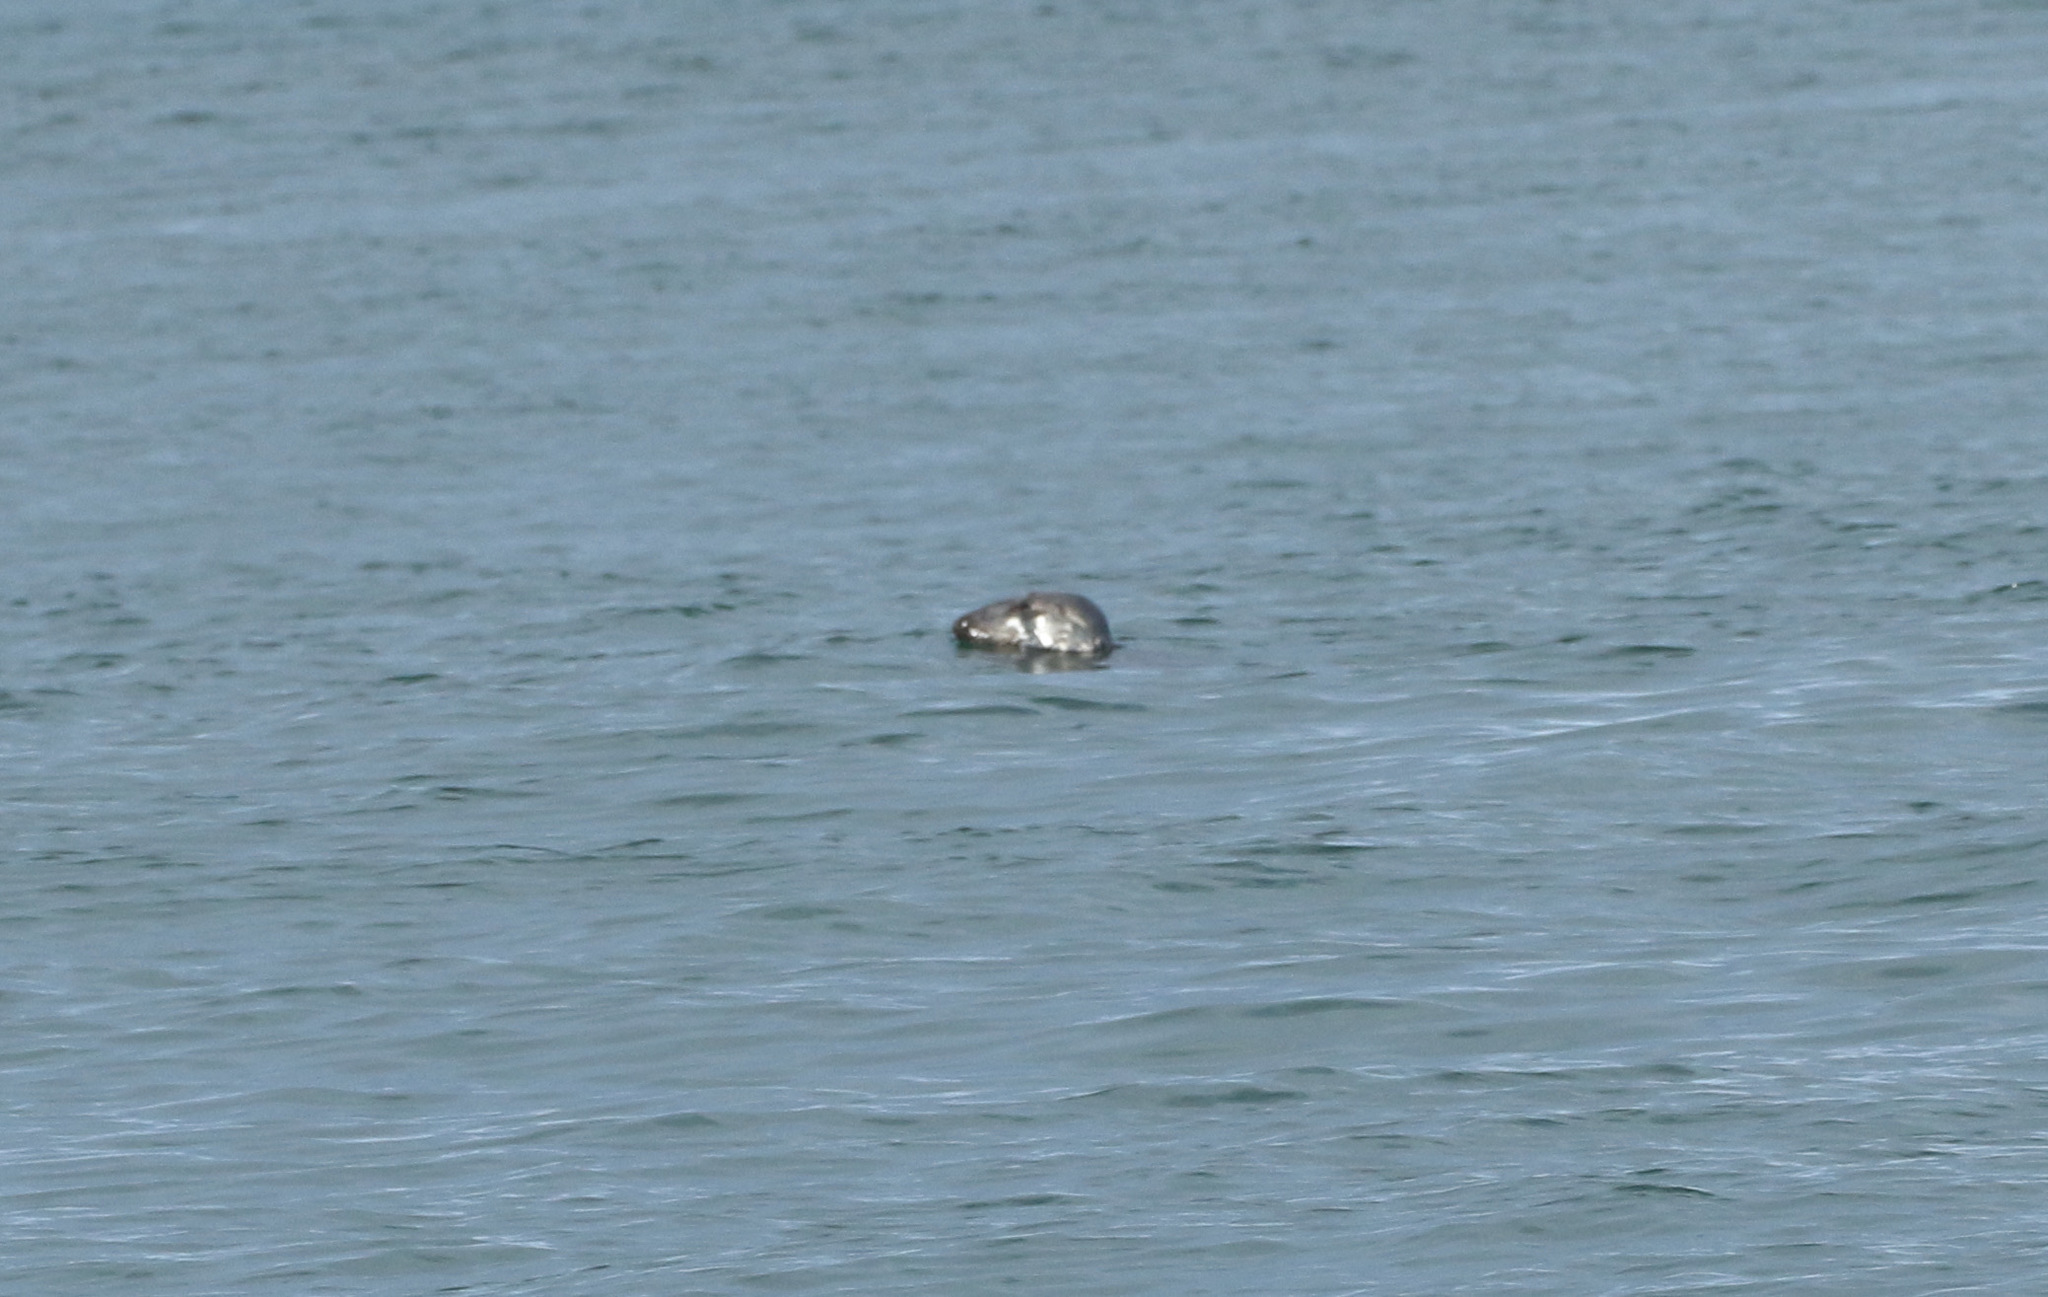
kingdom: Animalia
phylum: Chordata
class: Mammalia
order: Carnivora
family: Phocidae
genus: Halichoerus
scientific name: Halichoerus grypus
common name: Grey seal
